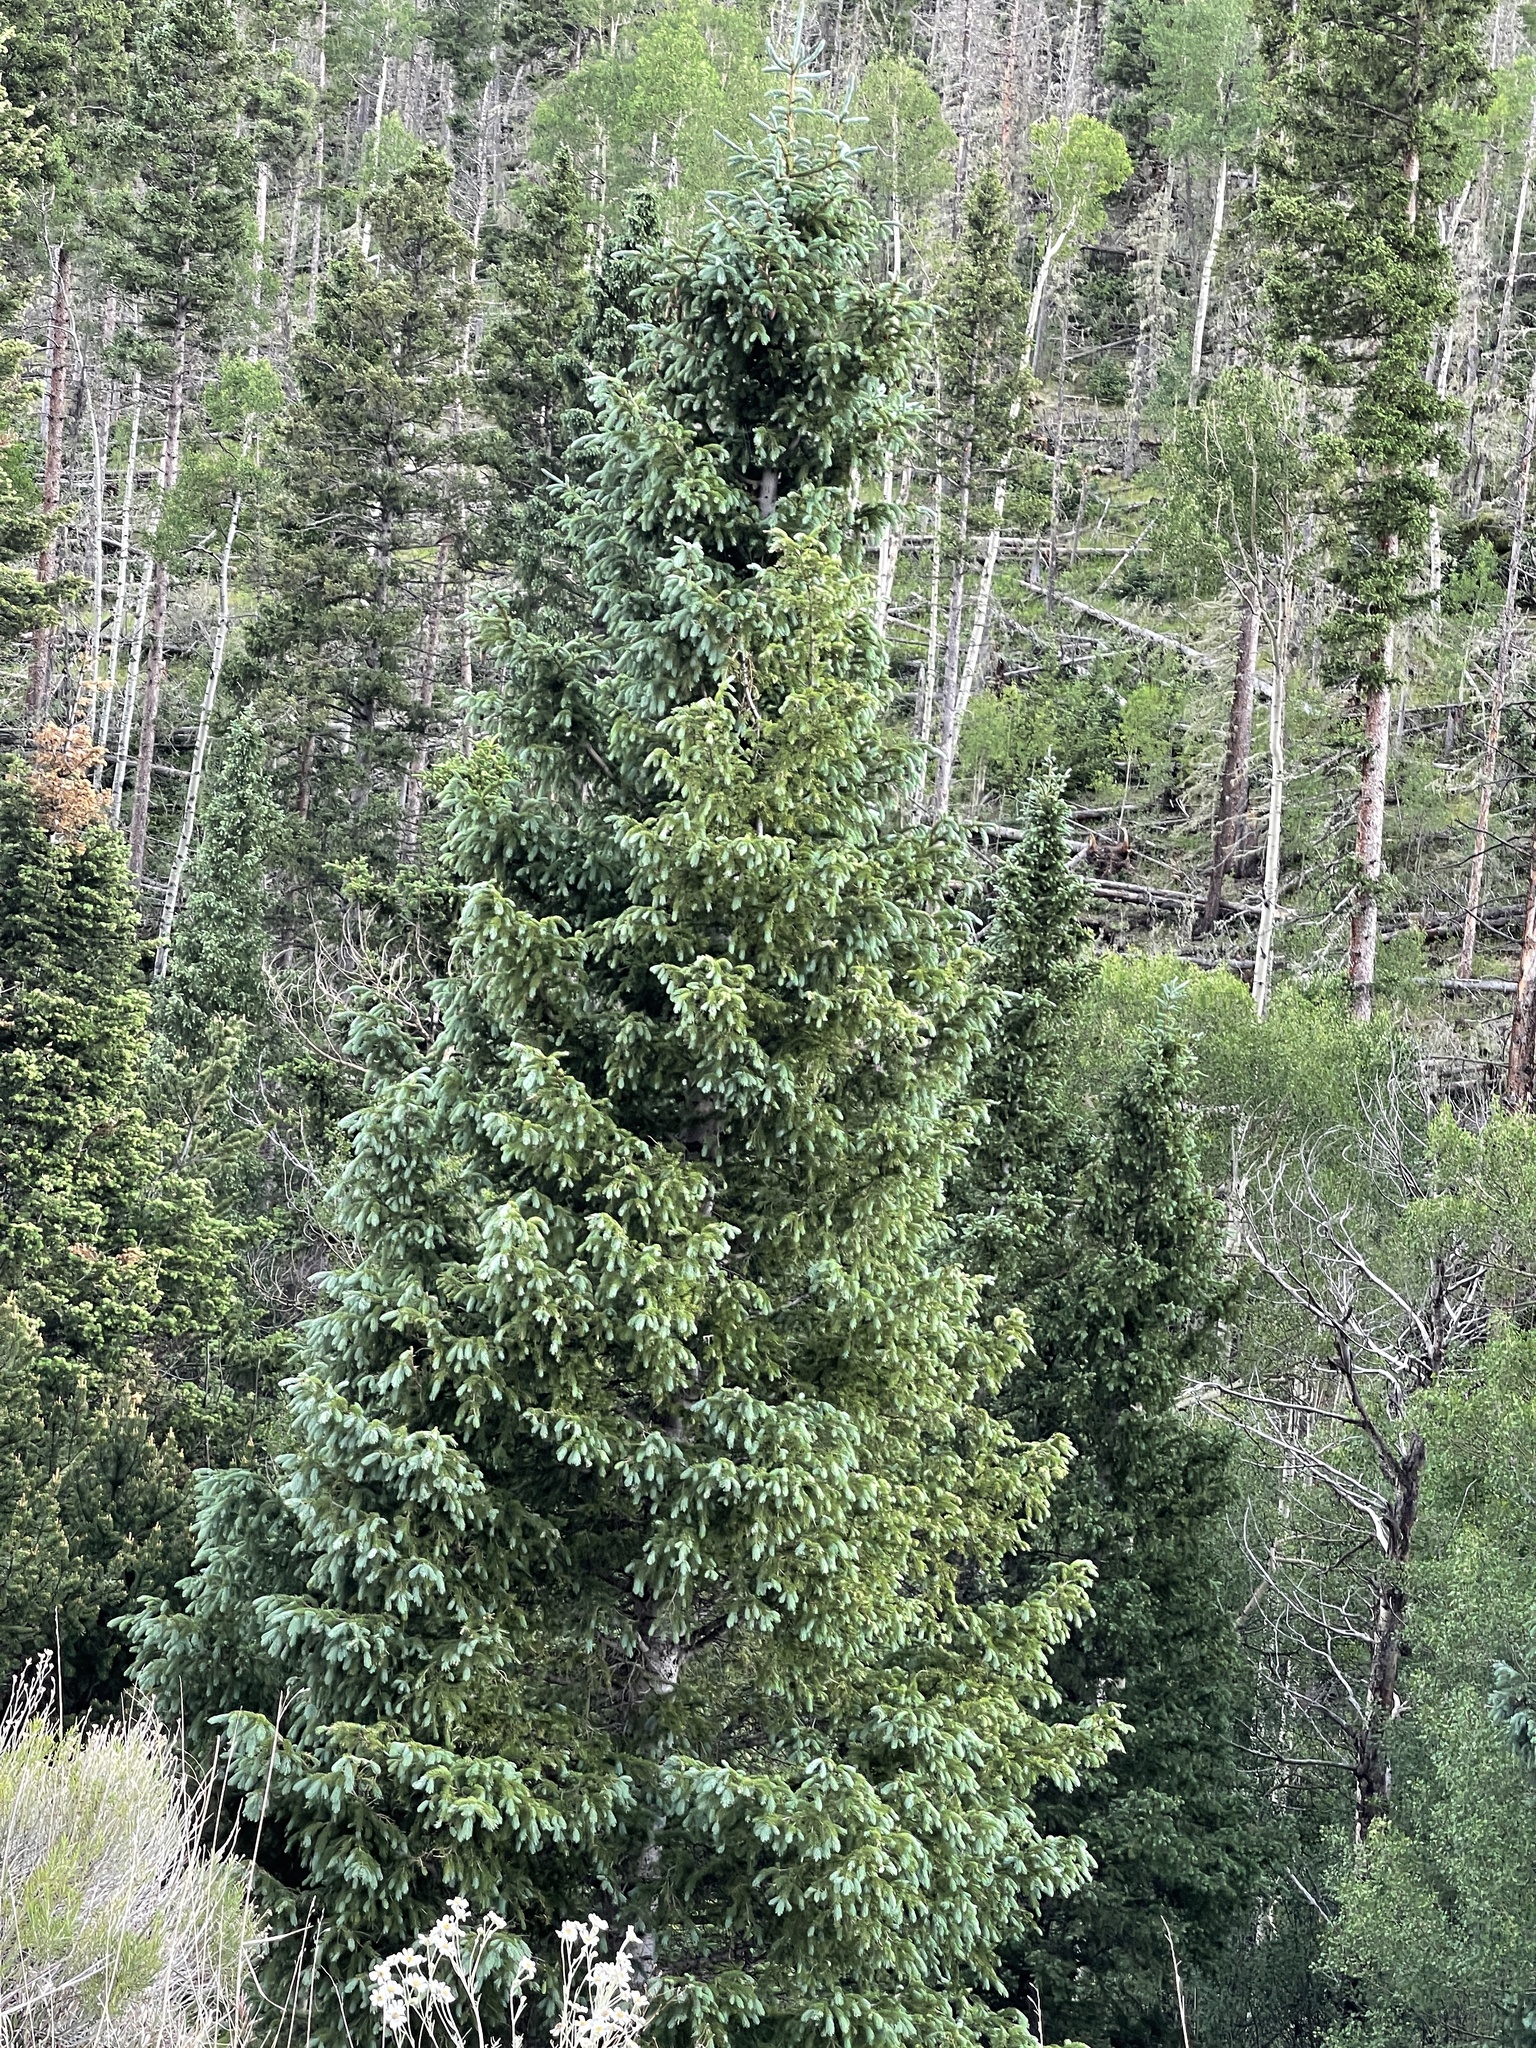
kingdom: Plantae
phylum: Tracheophyta
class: Pinopsida
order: Pinales
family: Pinaceae
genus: Picea
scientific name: Picea engelmannii
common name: Engelmann spruce
